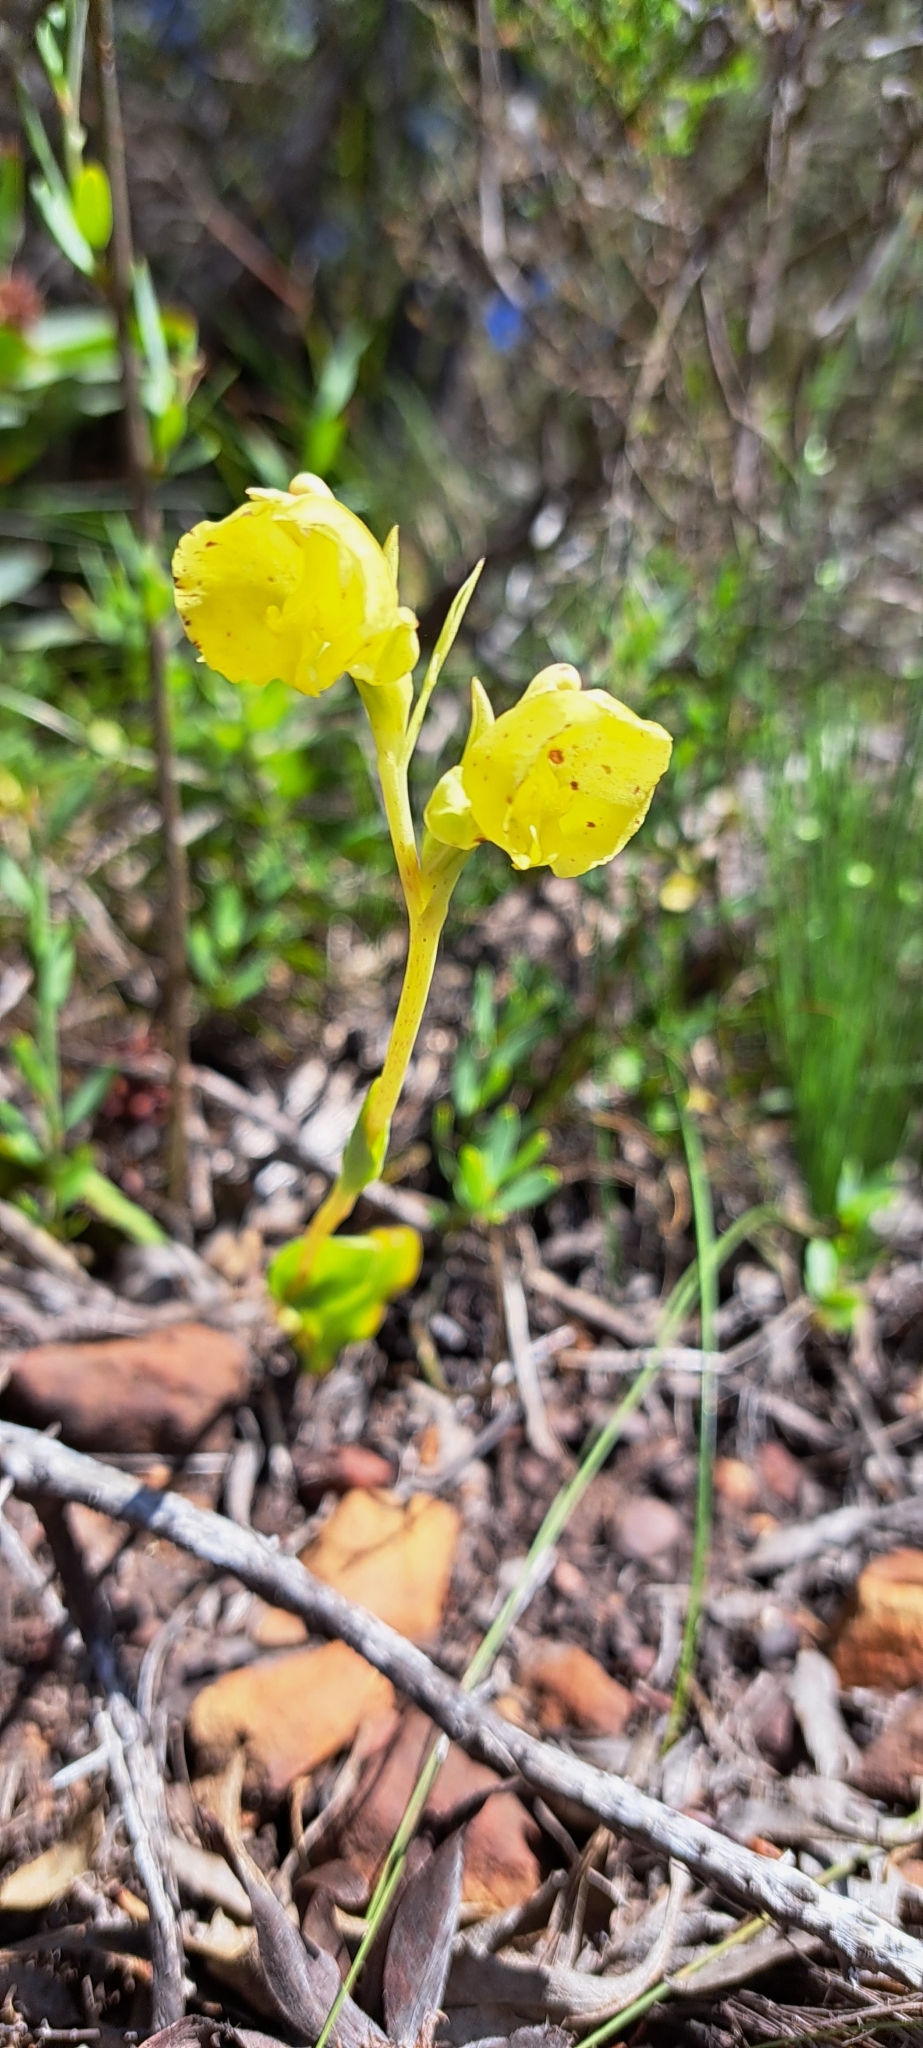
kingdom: Plantae
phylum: Tracheophyta
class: Liliopsida
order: Asparagales
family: Orchidaceae
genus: Pterygodium
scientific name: Pterygodium catholicum
